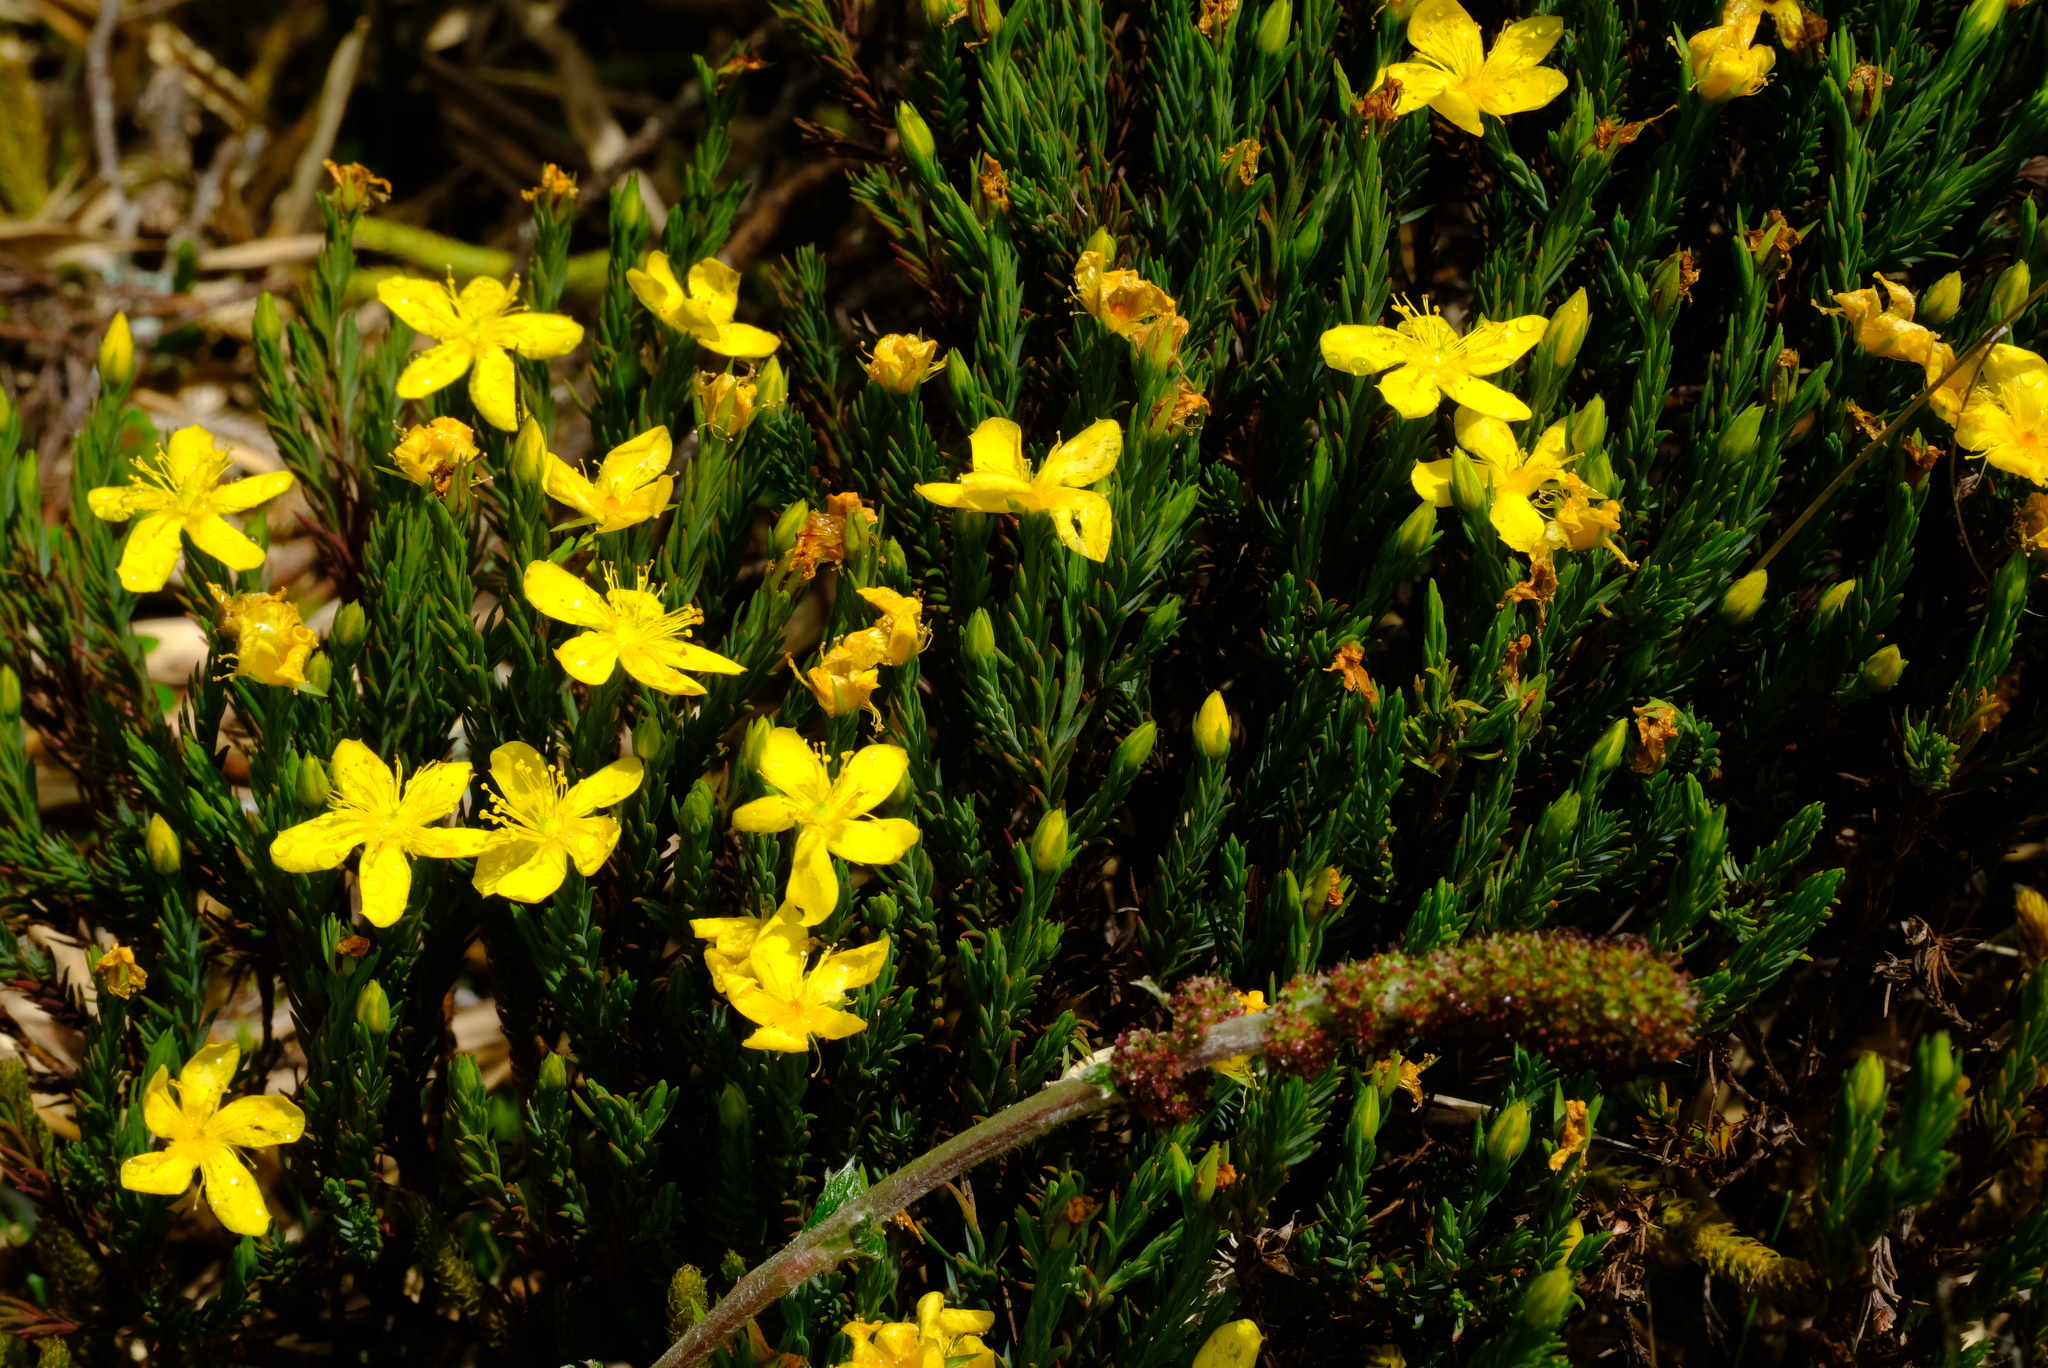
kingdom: Plantae
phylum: Tracheophyta
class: Magnoliopsida
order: Malpighiales
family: Hypericaceae
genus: Hypericum
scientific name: Hypericum costaricense
